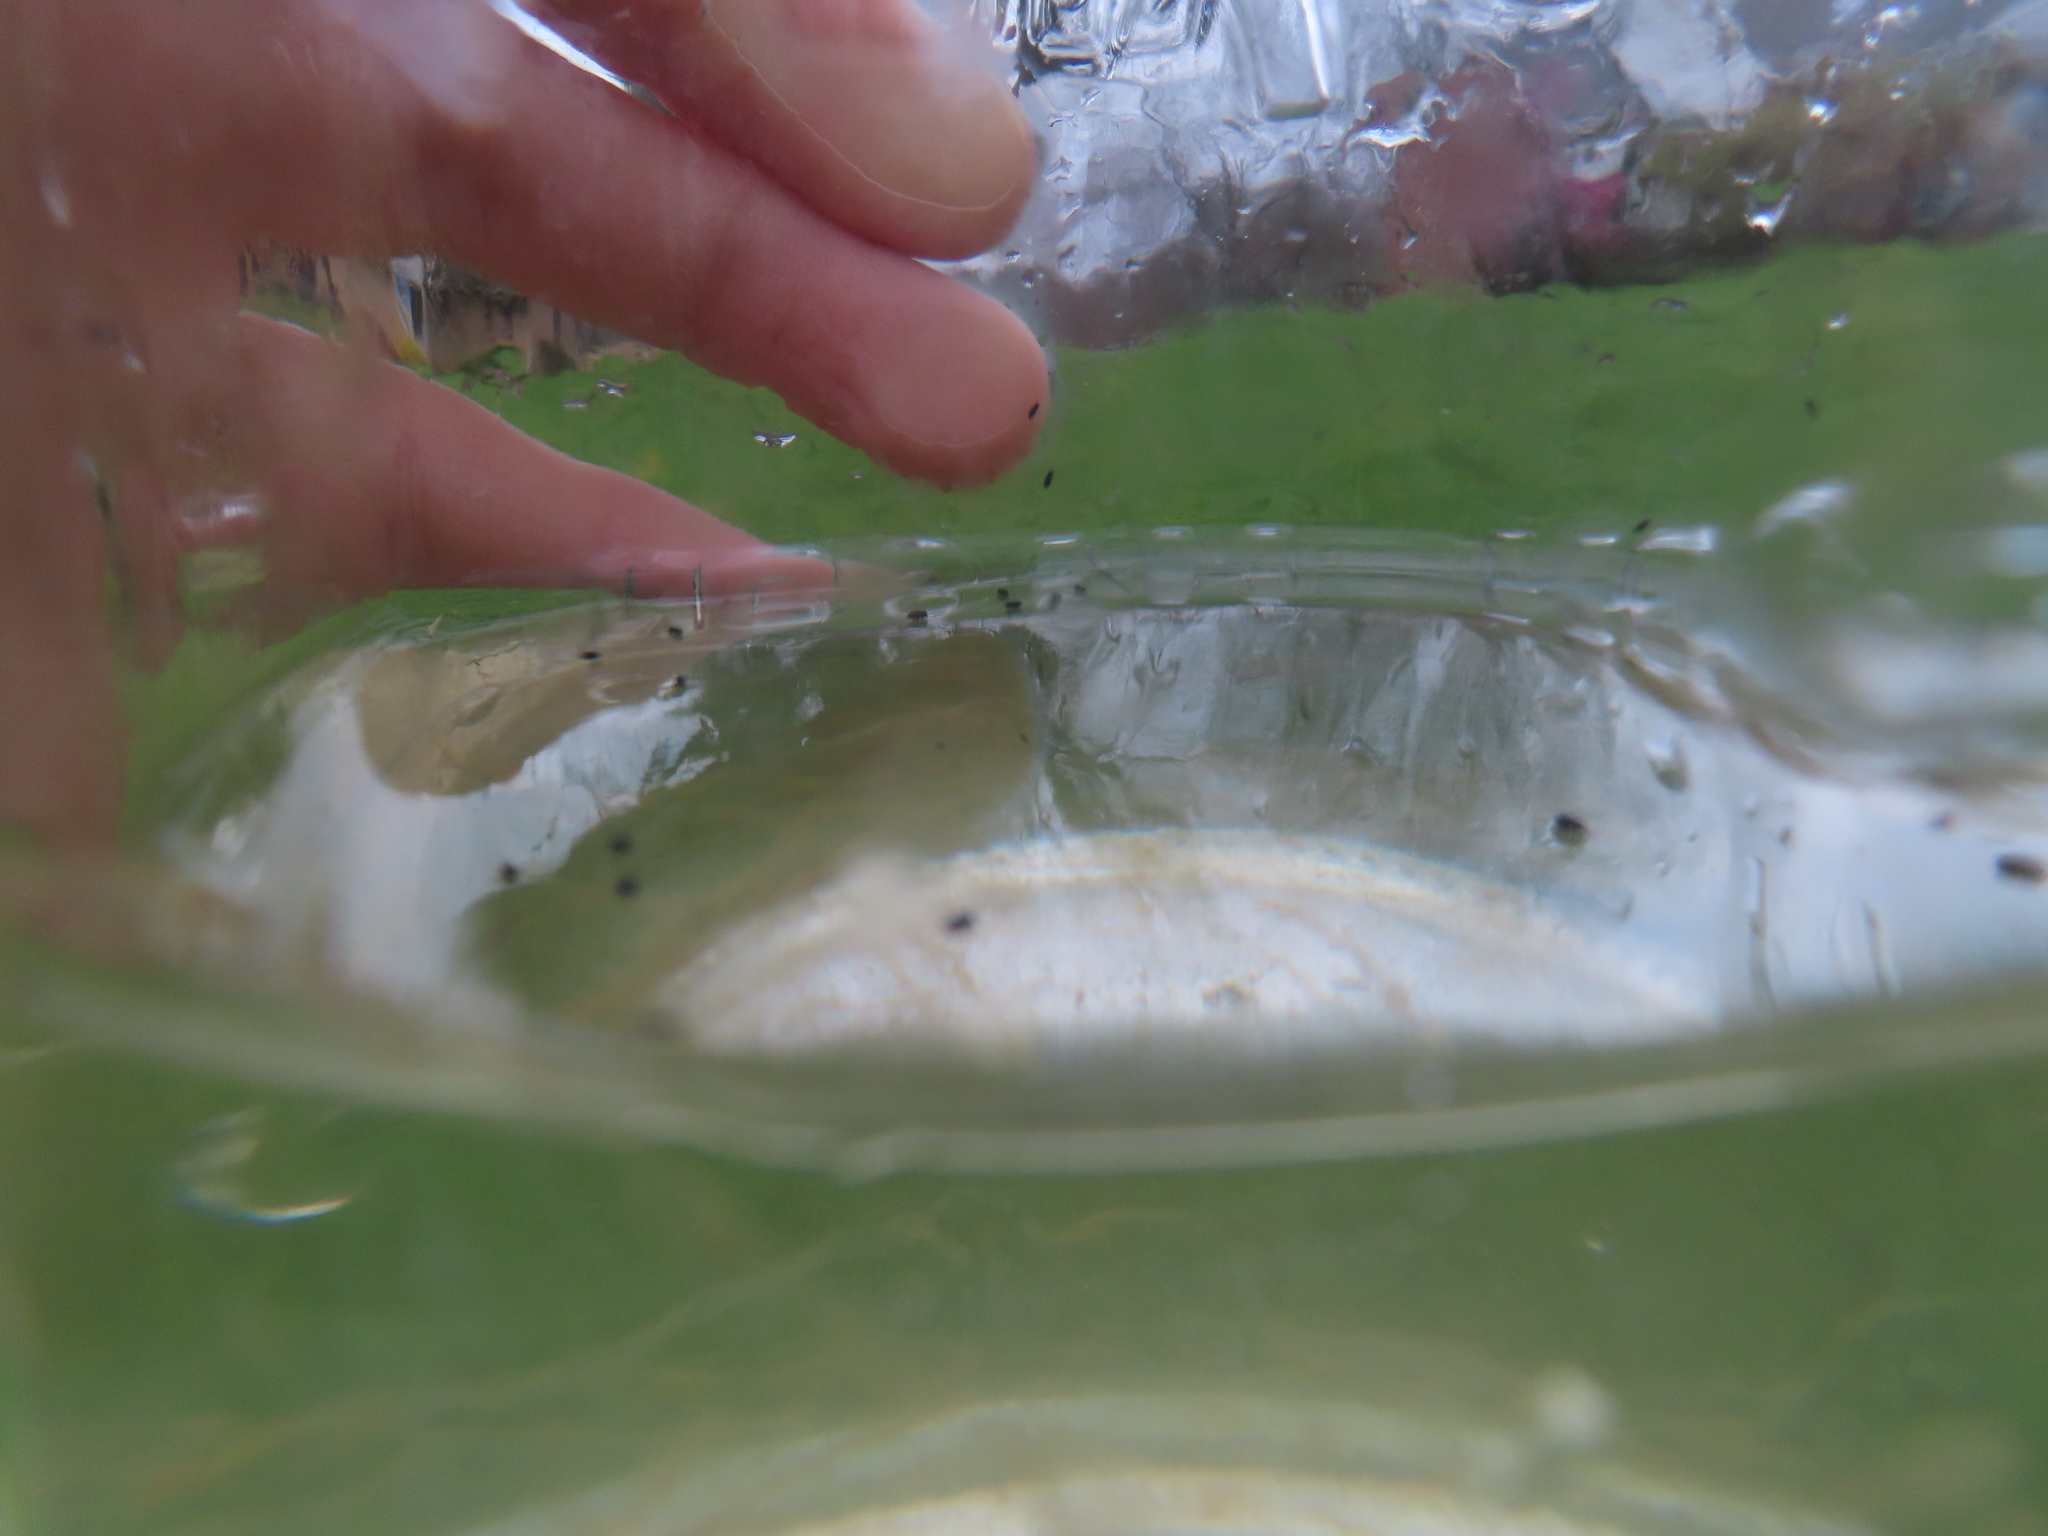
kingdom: Animalia
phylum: Arthropoda
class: Collembola
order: Poduromorpha
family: Poduridae
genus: Podura
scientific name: Podura aquatica
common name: Water springtail
